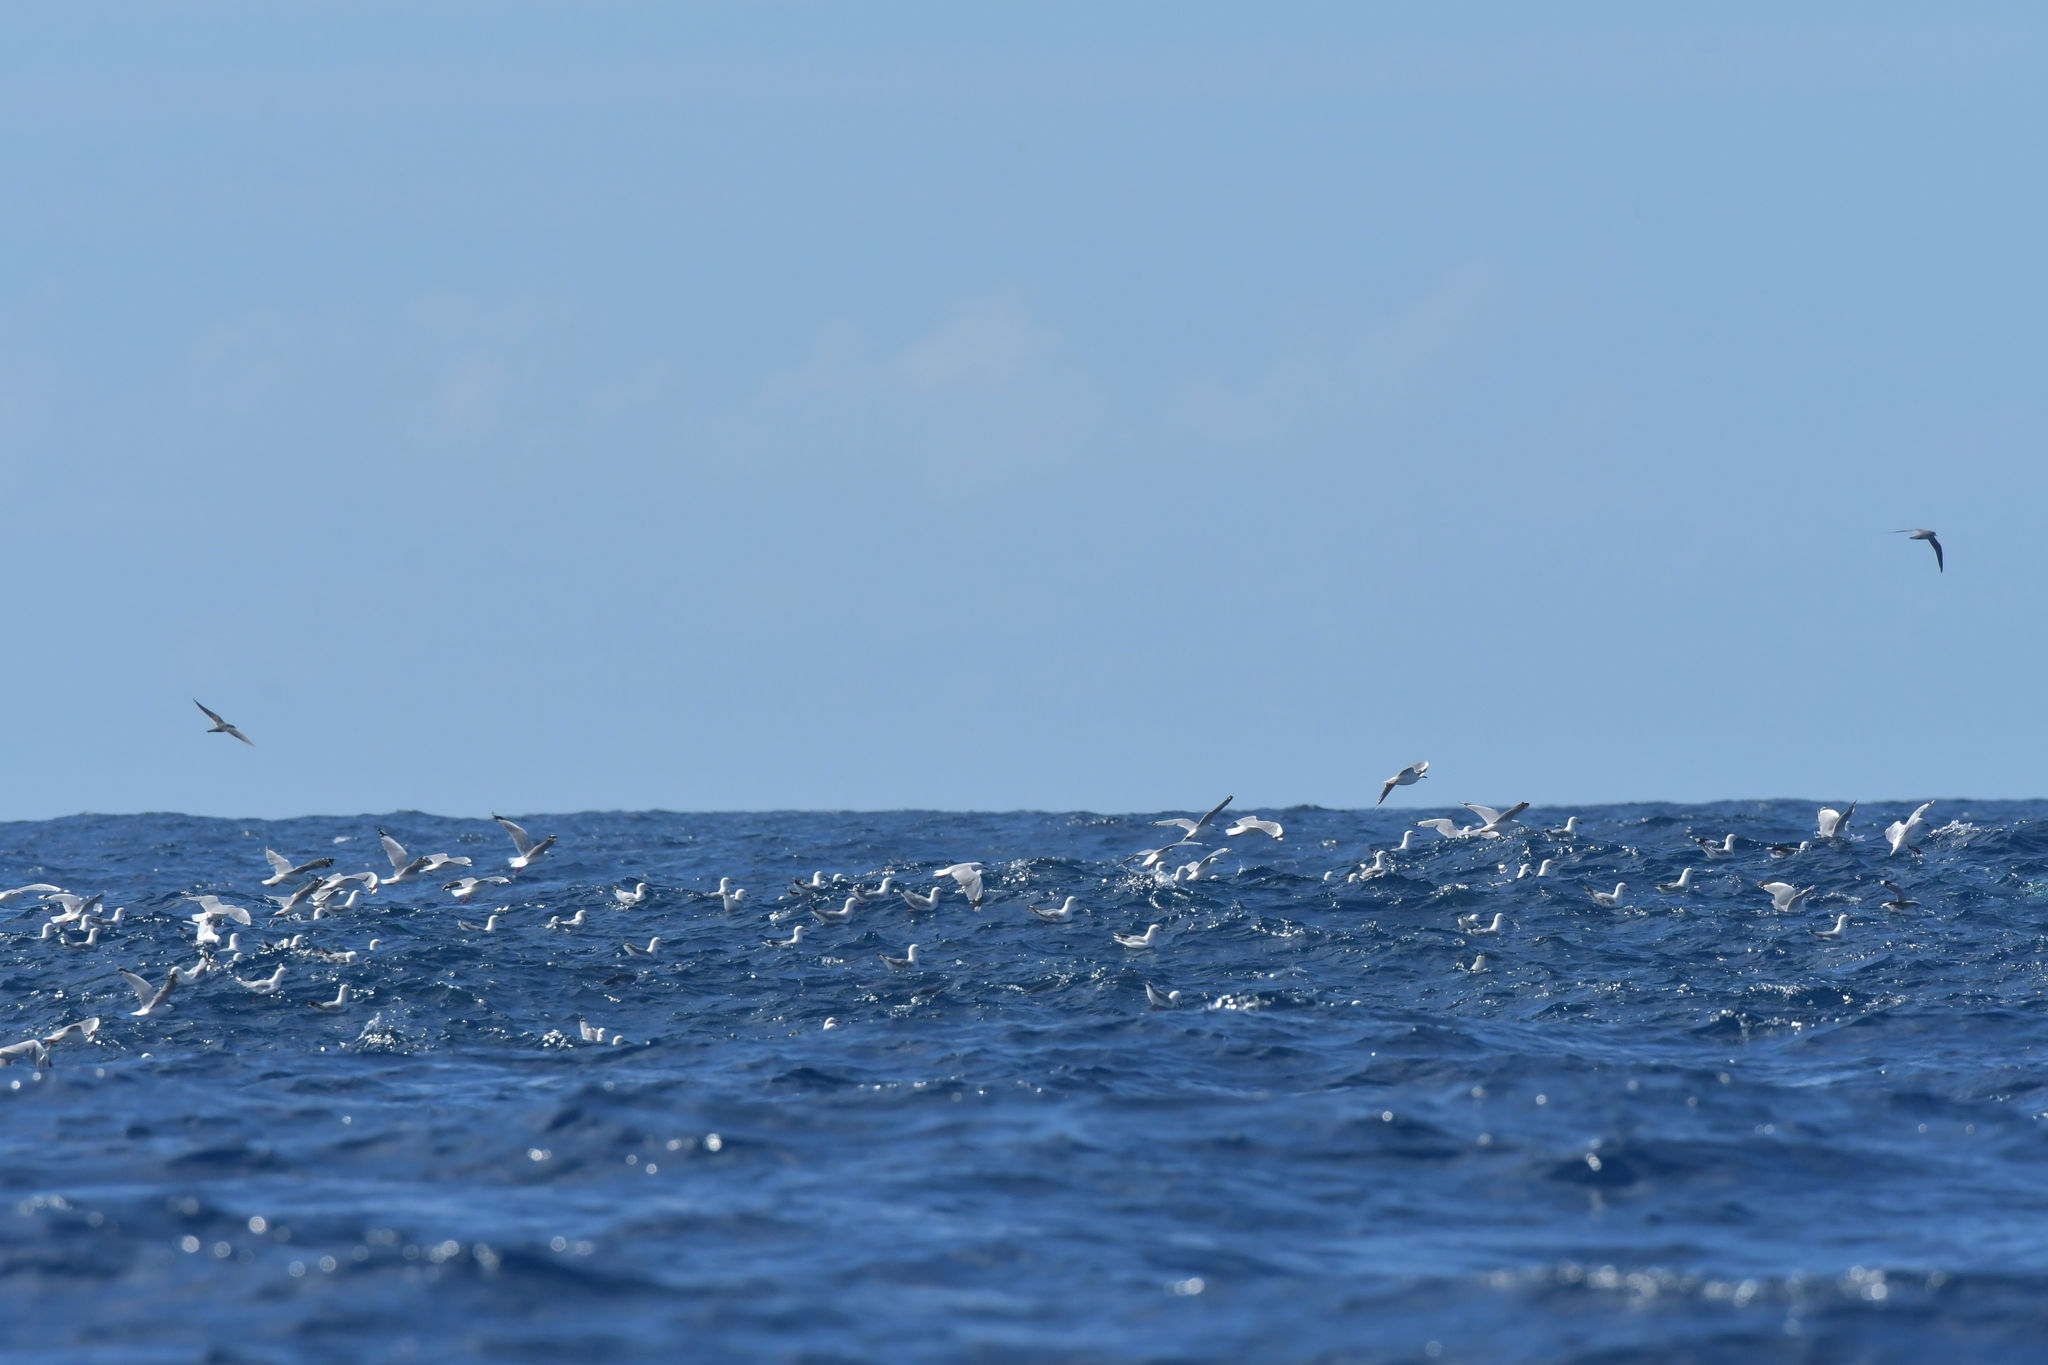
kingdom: Animalia
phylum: Chordata
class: Aves
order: Charadriiformes
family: Laridae
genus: Chroicocephalus
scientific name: Chroicocephalus novaehollandiae
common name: Silver gull
